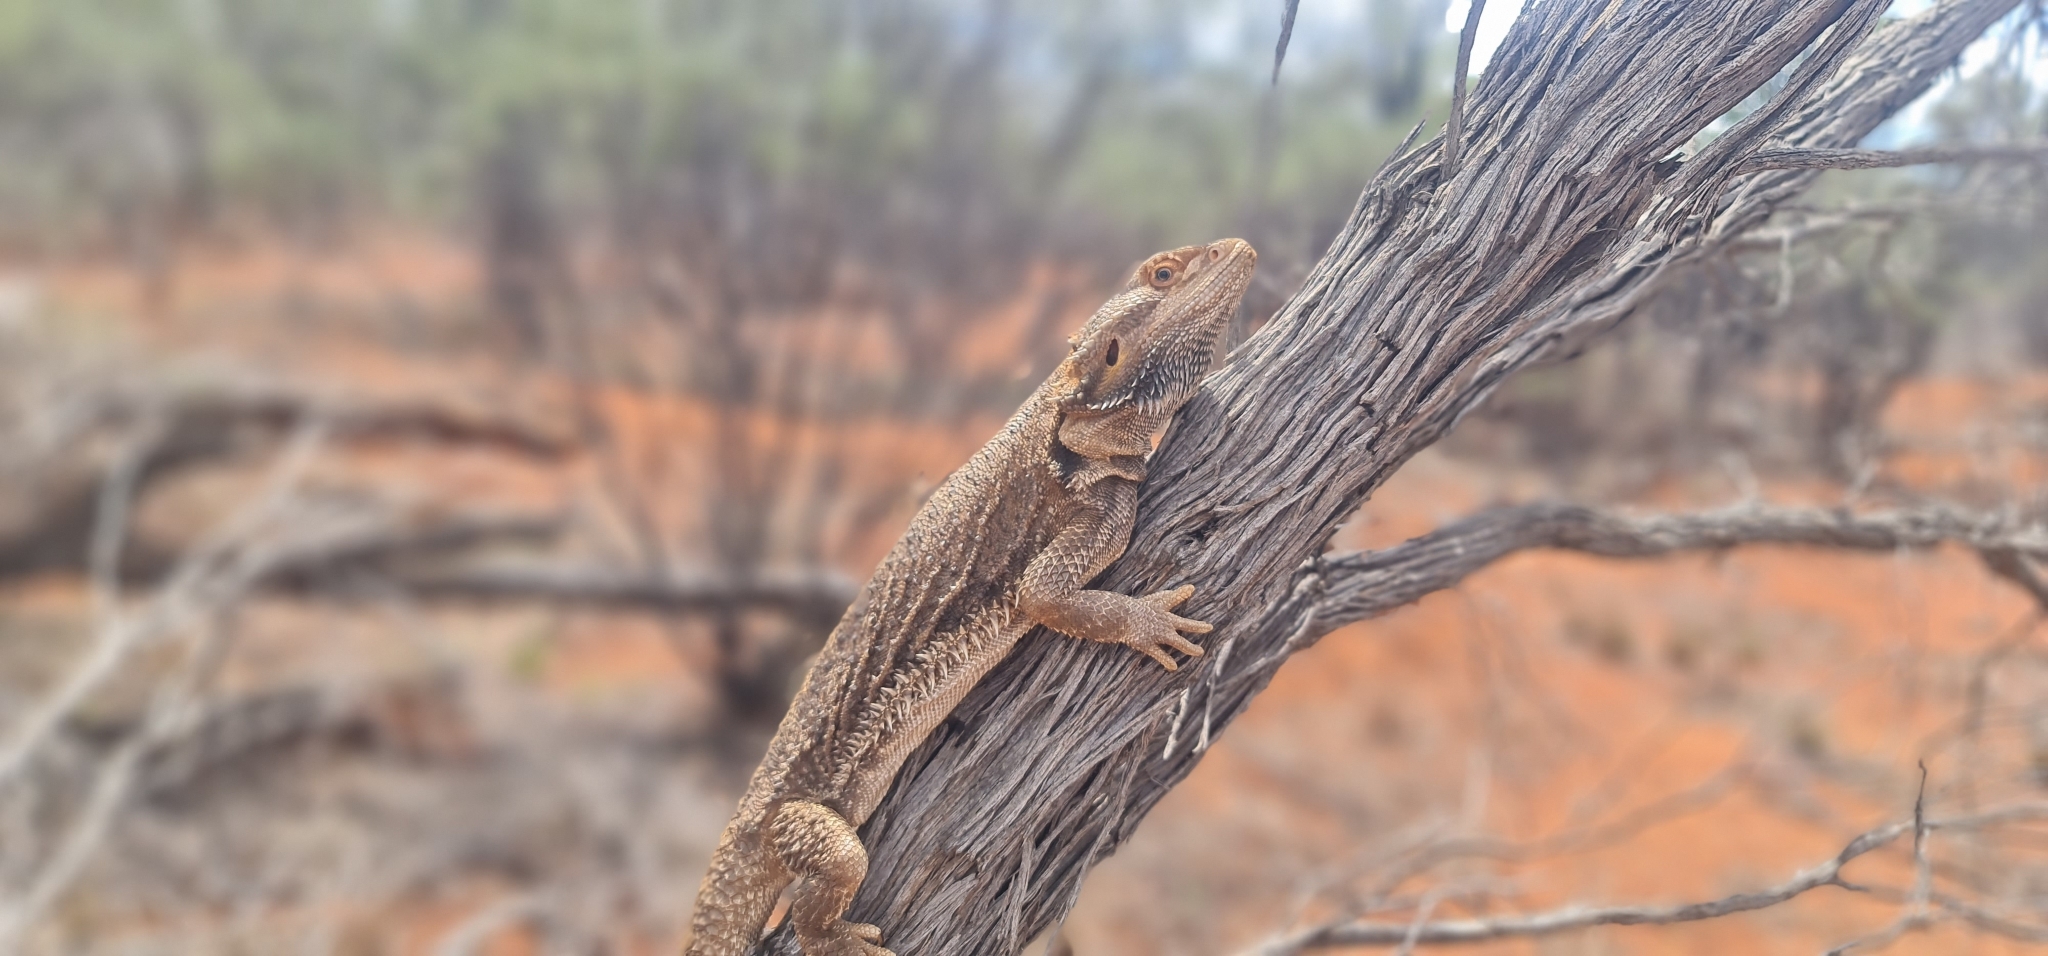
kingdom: Animalia
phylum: Chordata
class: Squamata
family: Agamidae
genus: Pogona
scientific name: Pogona vitticeps
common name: Central bearded dragon
